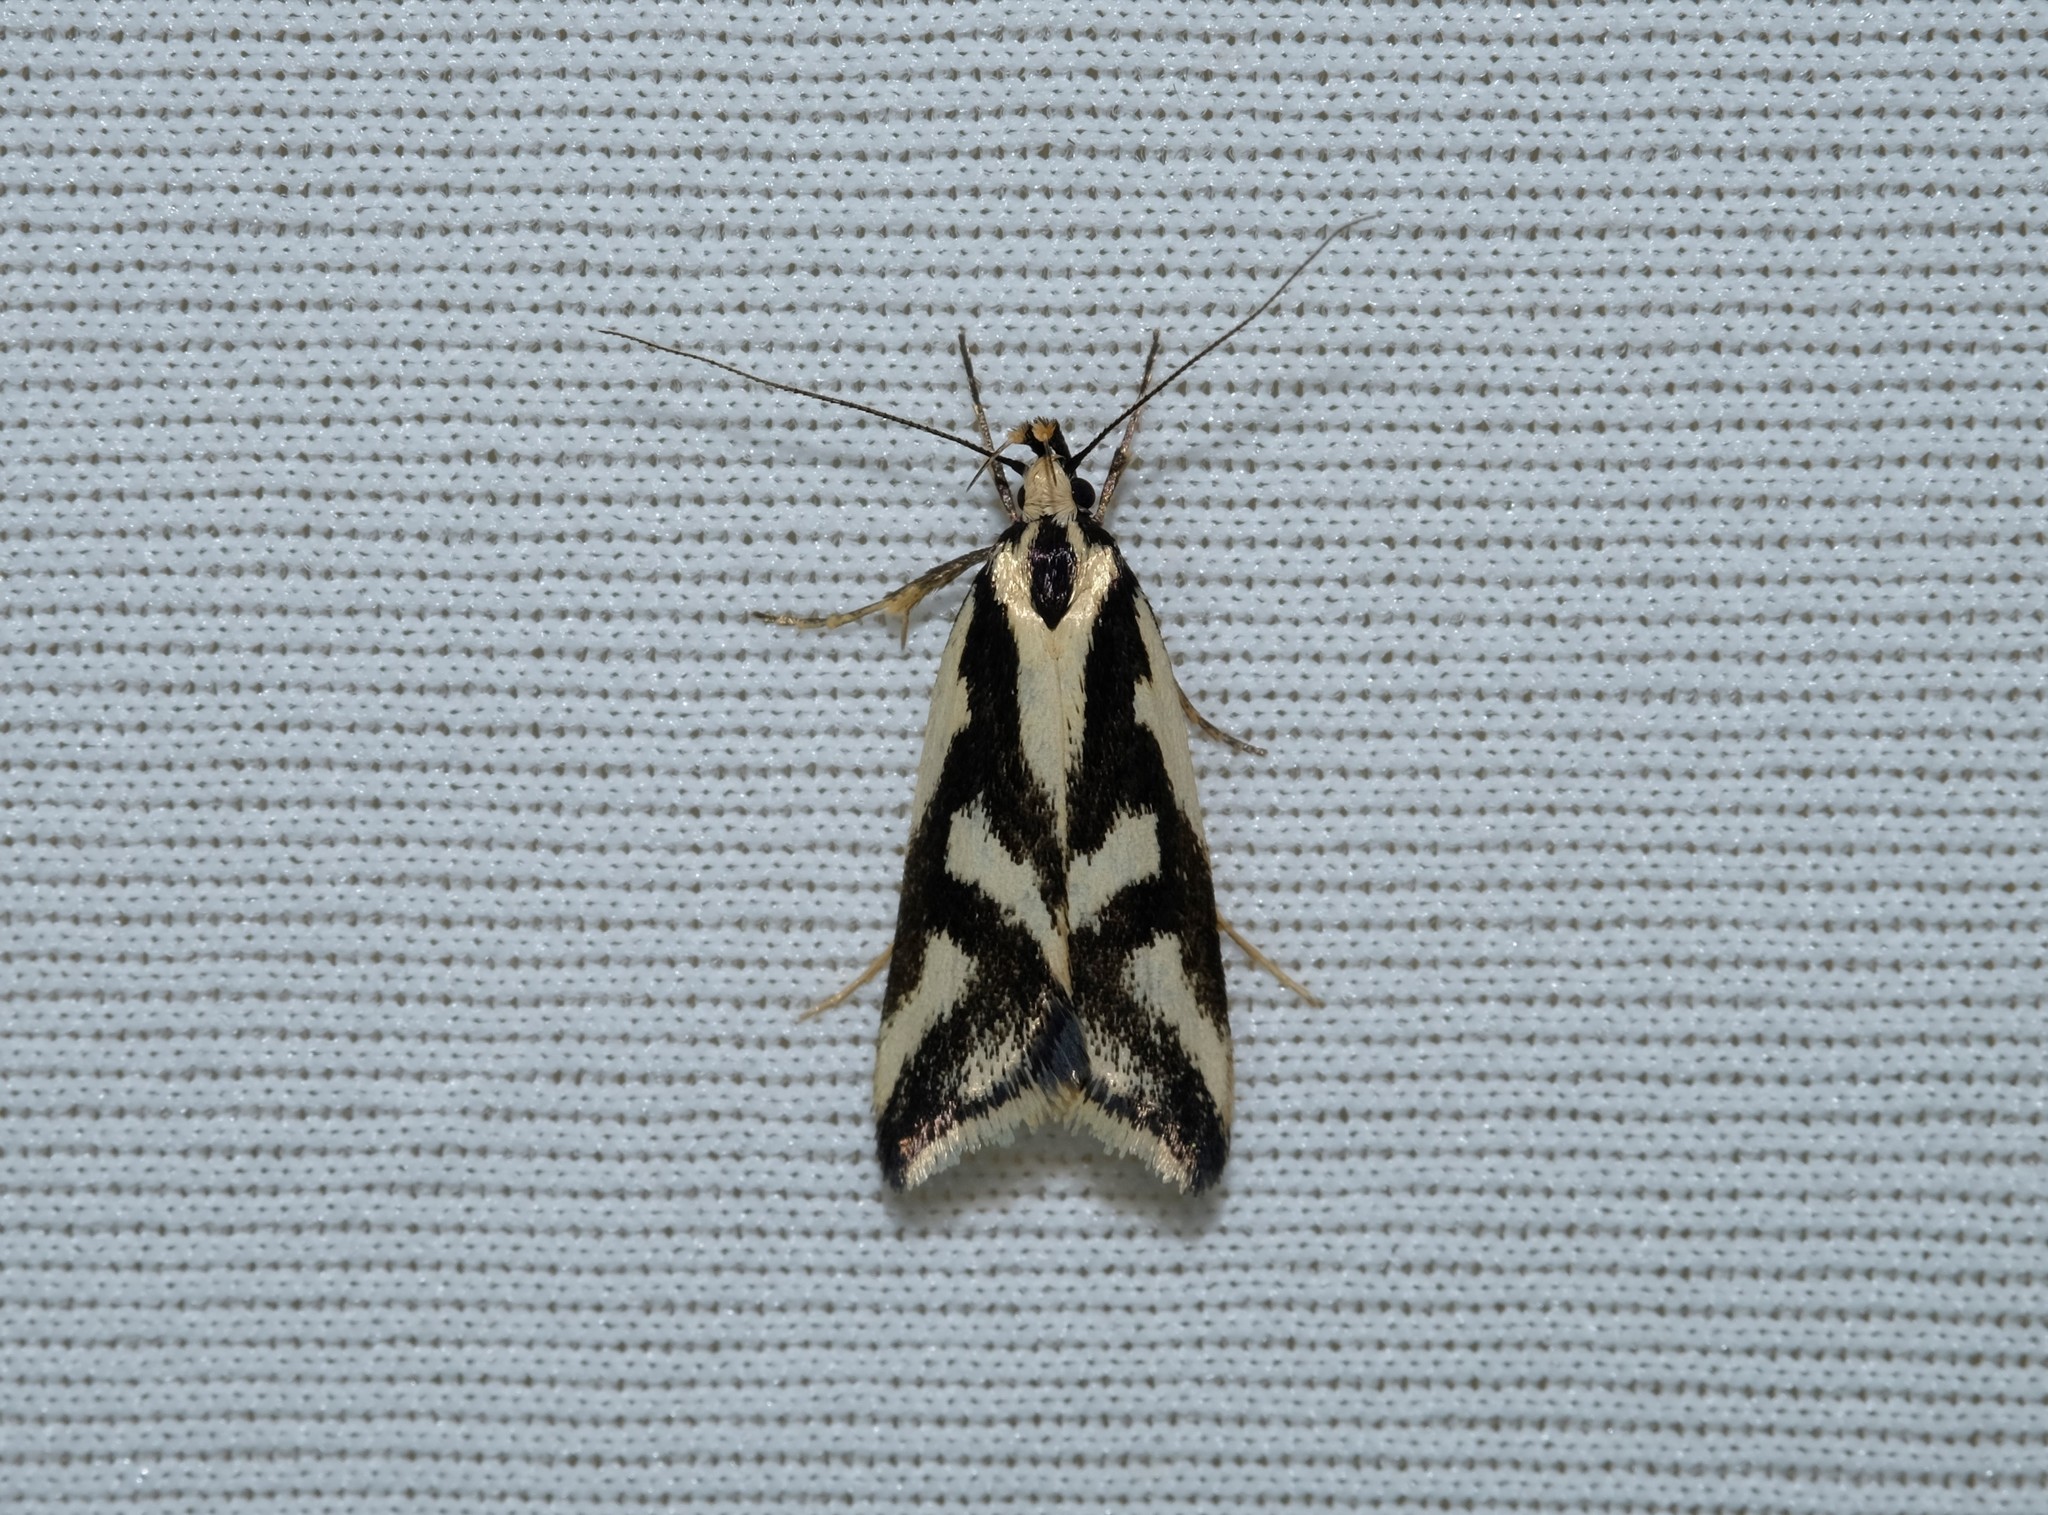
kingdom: Animalia
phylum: Arthropoda
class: Insecta
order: Lepidoptera
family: Oecophoridae
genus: Epithymema
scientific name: Epithymema incomposita
